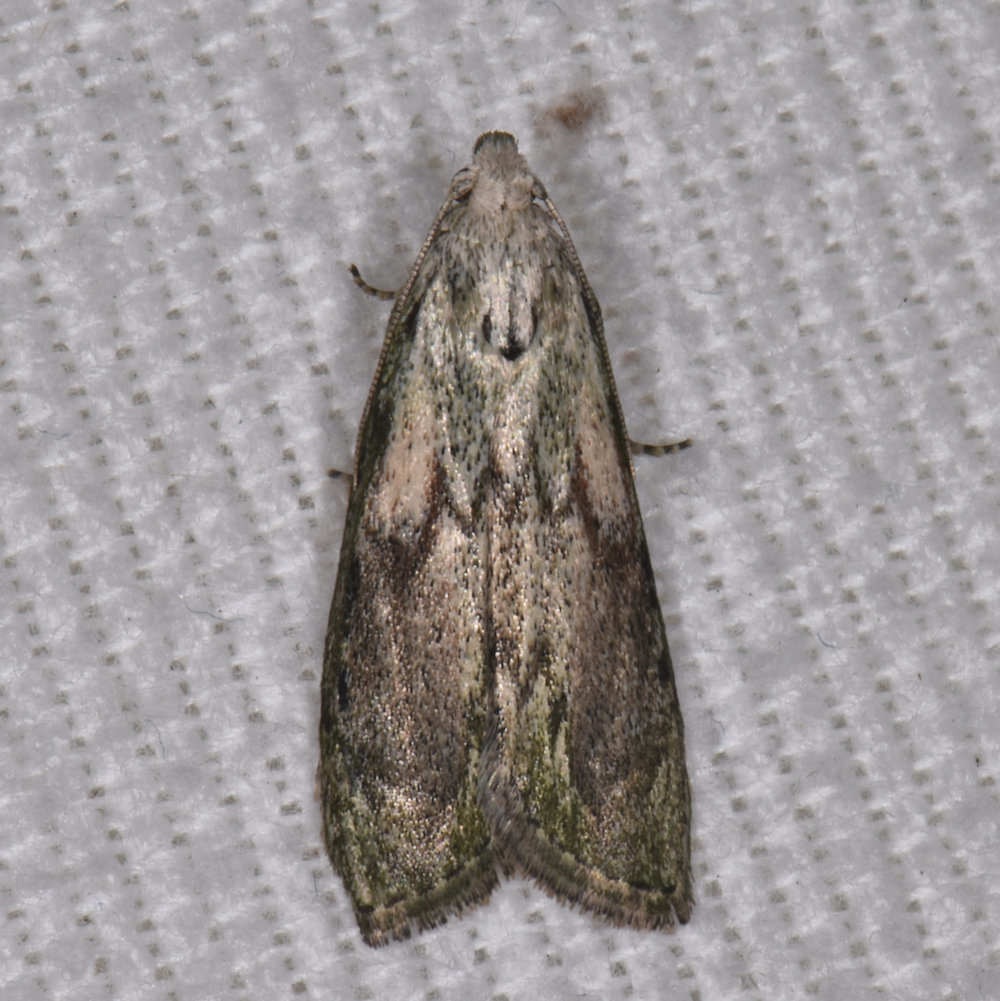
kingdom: Animalia
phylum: Arthropoda
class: Insecta
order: Lepidoptera
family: Pyralidae
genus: Aphomia
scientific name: Aphomia sociella
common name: Bee moth
